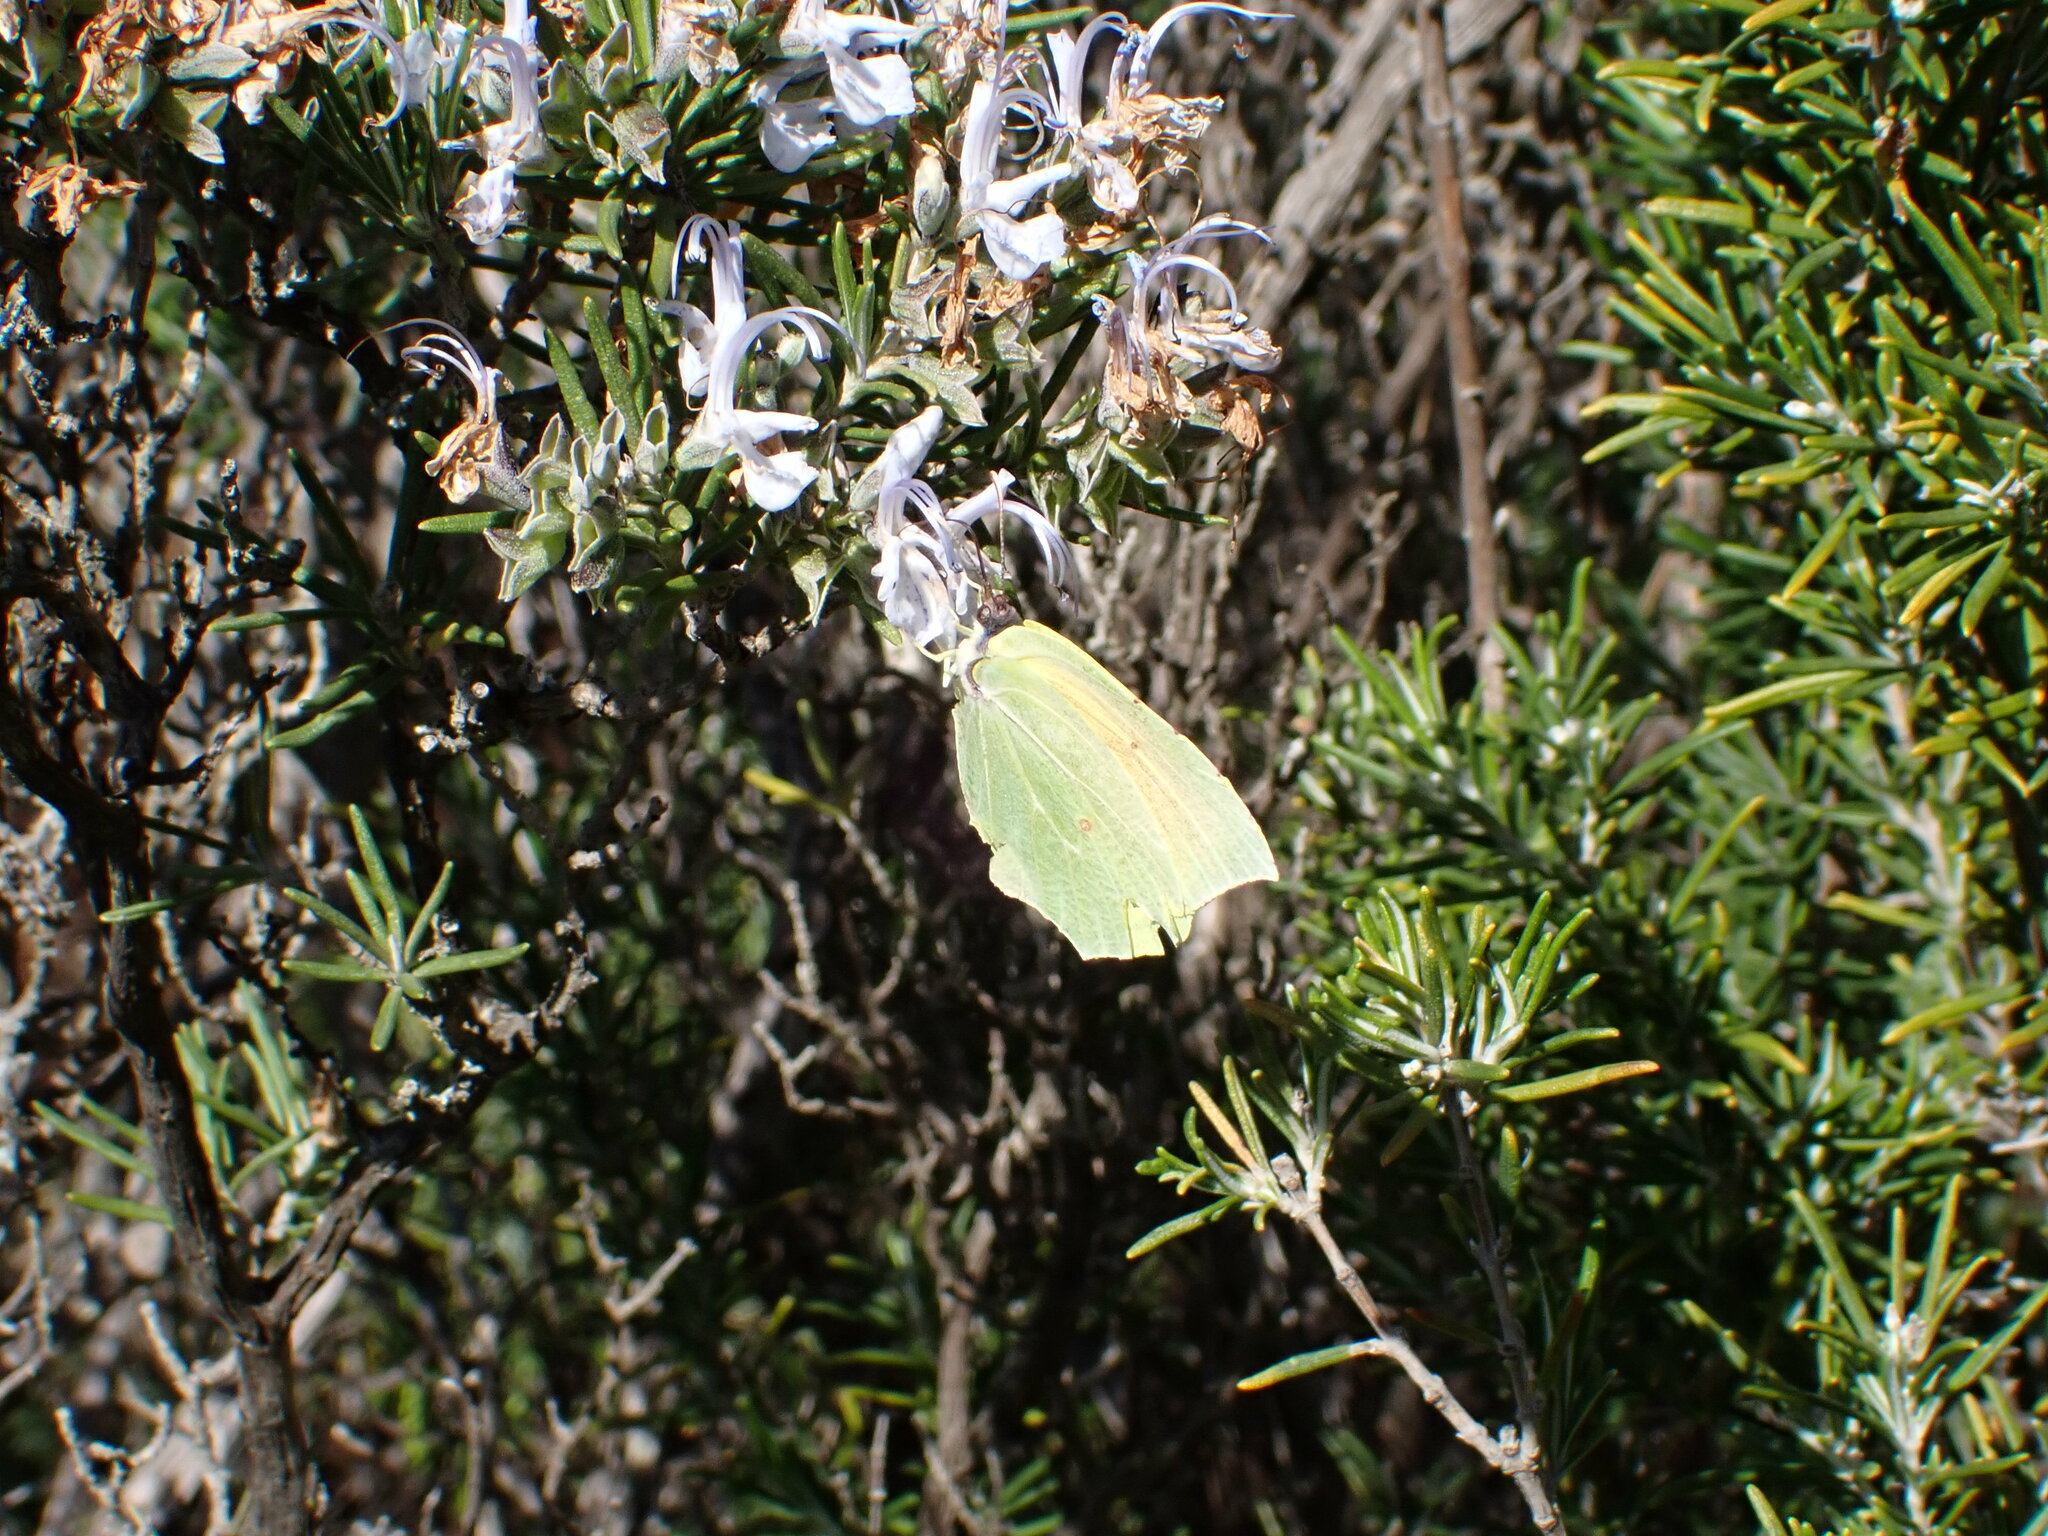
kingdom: Animalia
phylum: Arthropoda
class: Insecta
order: Lepidoptera
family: Pieridae
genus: Gonepteryx
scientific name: Gonepteryx cleopatra
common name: Cleopatra
